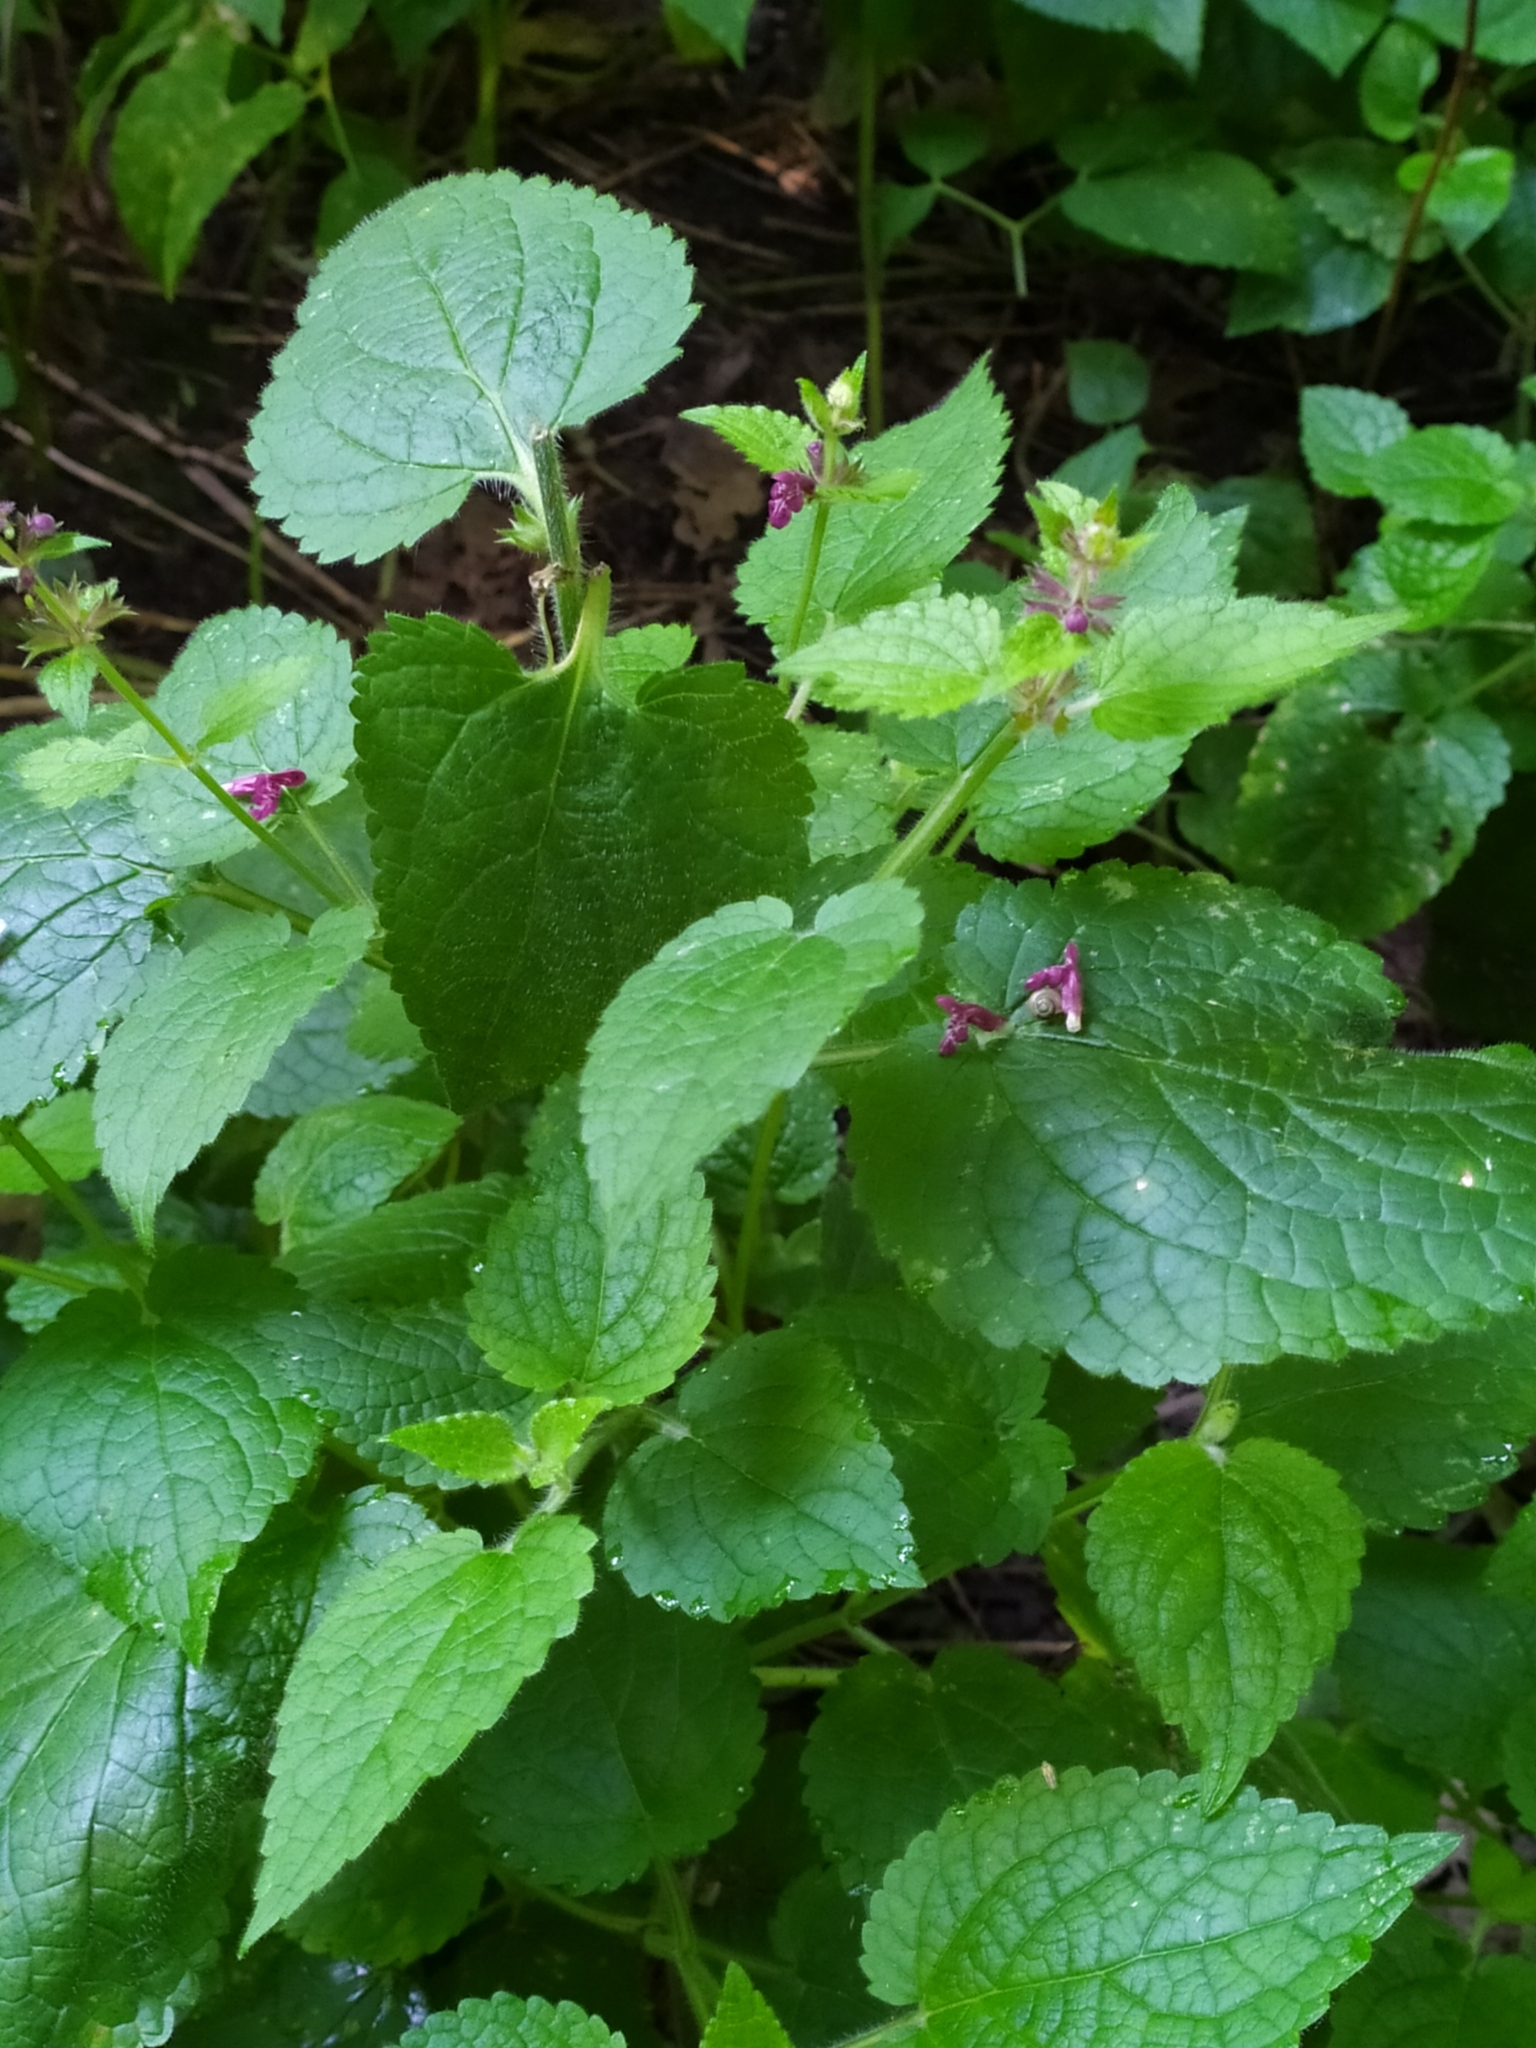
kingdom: Plantae
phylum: Tracheophyta
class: Magnoliopsida
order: Lamiales
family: Lamiaceae
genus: Stachys
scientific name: Stachys sylvatica
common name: Hedge woundwort
